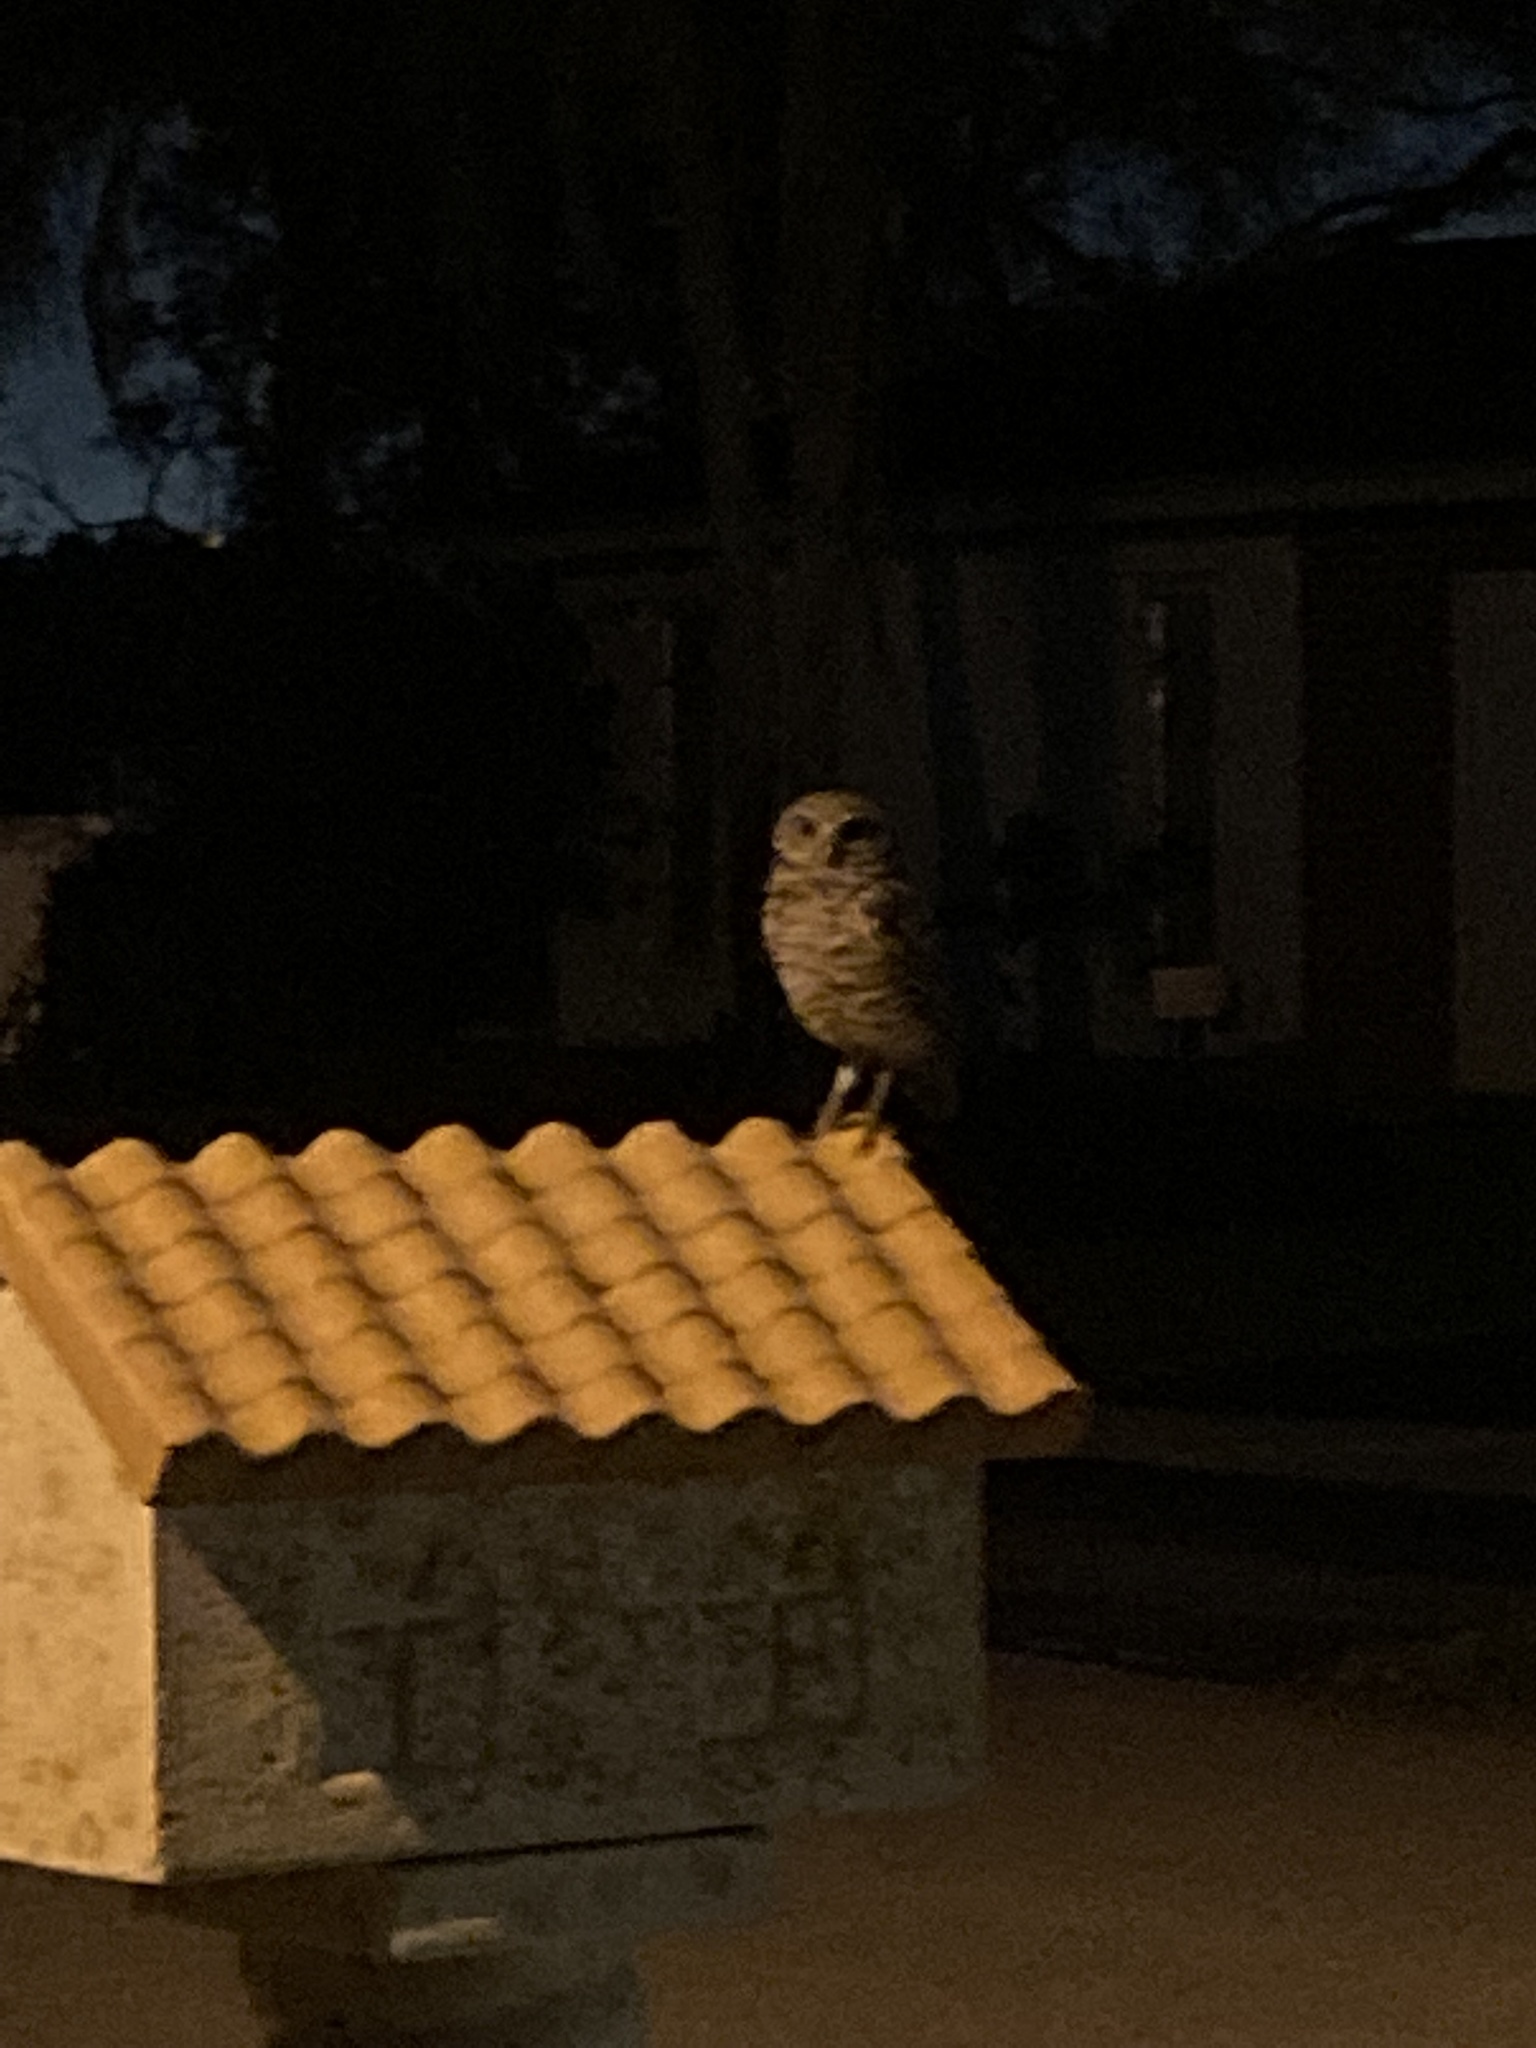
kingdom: Animalia
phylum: Chordata
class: Aves
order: Strigiformes
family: Strigidae
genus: Athene
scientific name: Athene cunicularia
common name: Burrowing owl
